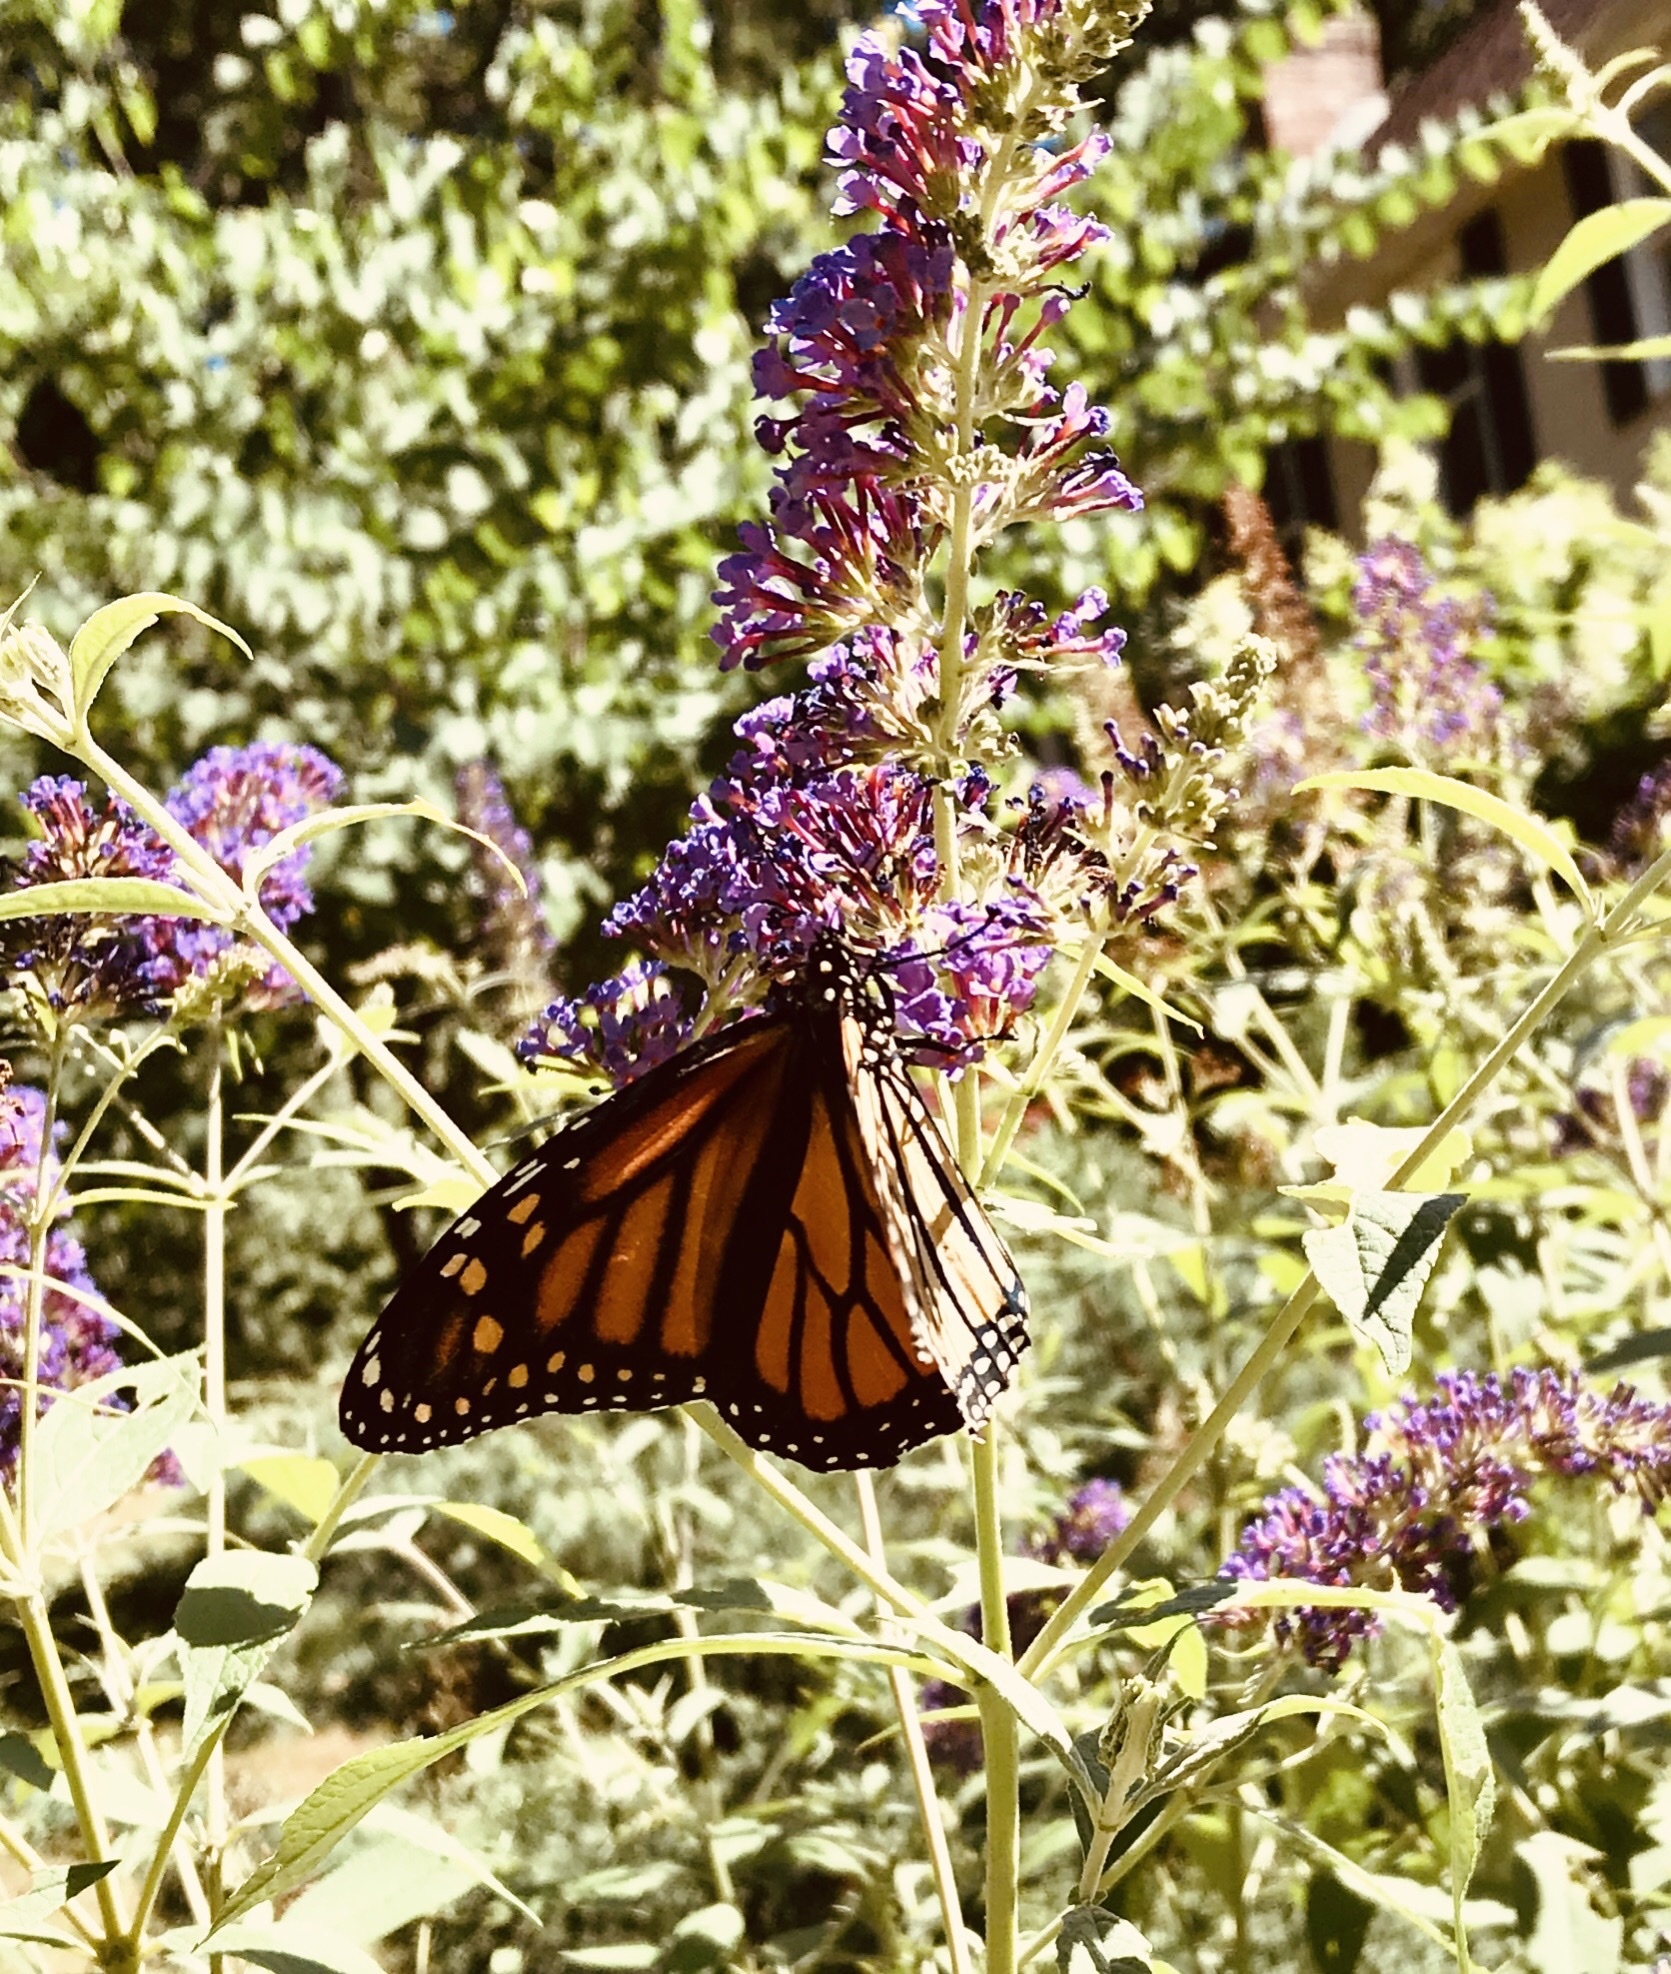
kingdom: Animalia
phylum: Arthropoda
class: Insecta
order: Lepidoptera
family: Nymphalidae
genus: Danaus
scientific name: Danaus plexippus
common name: Monarch
